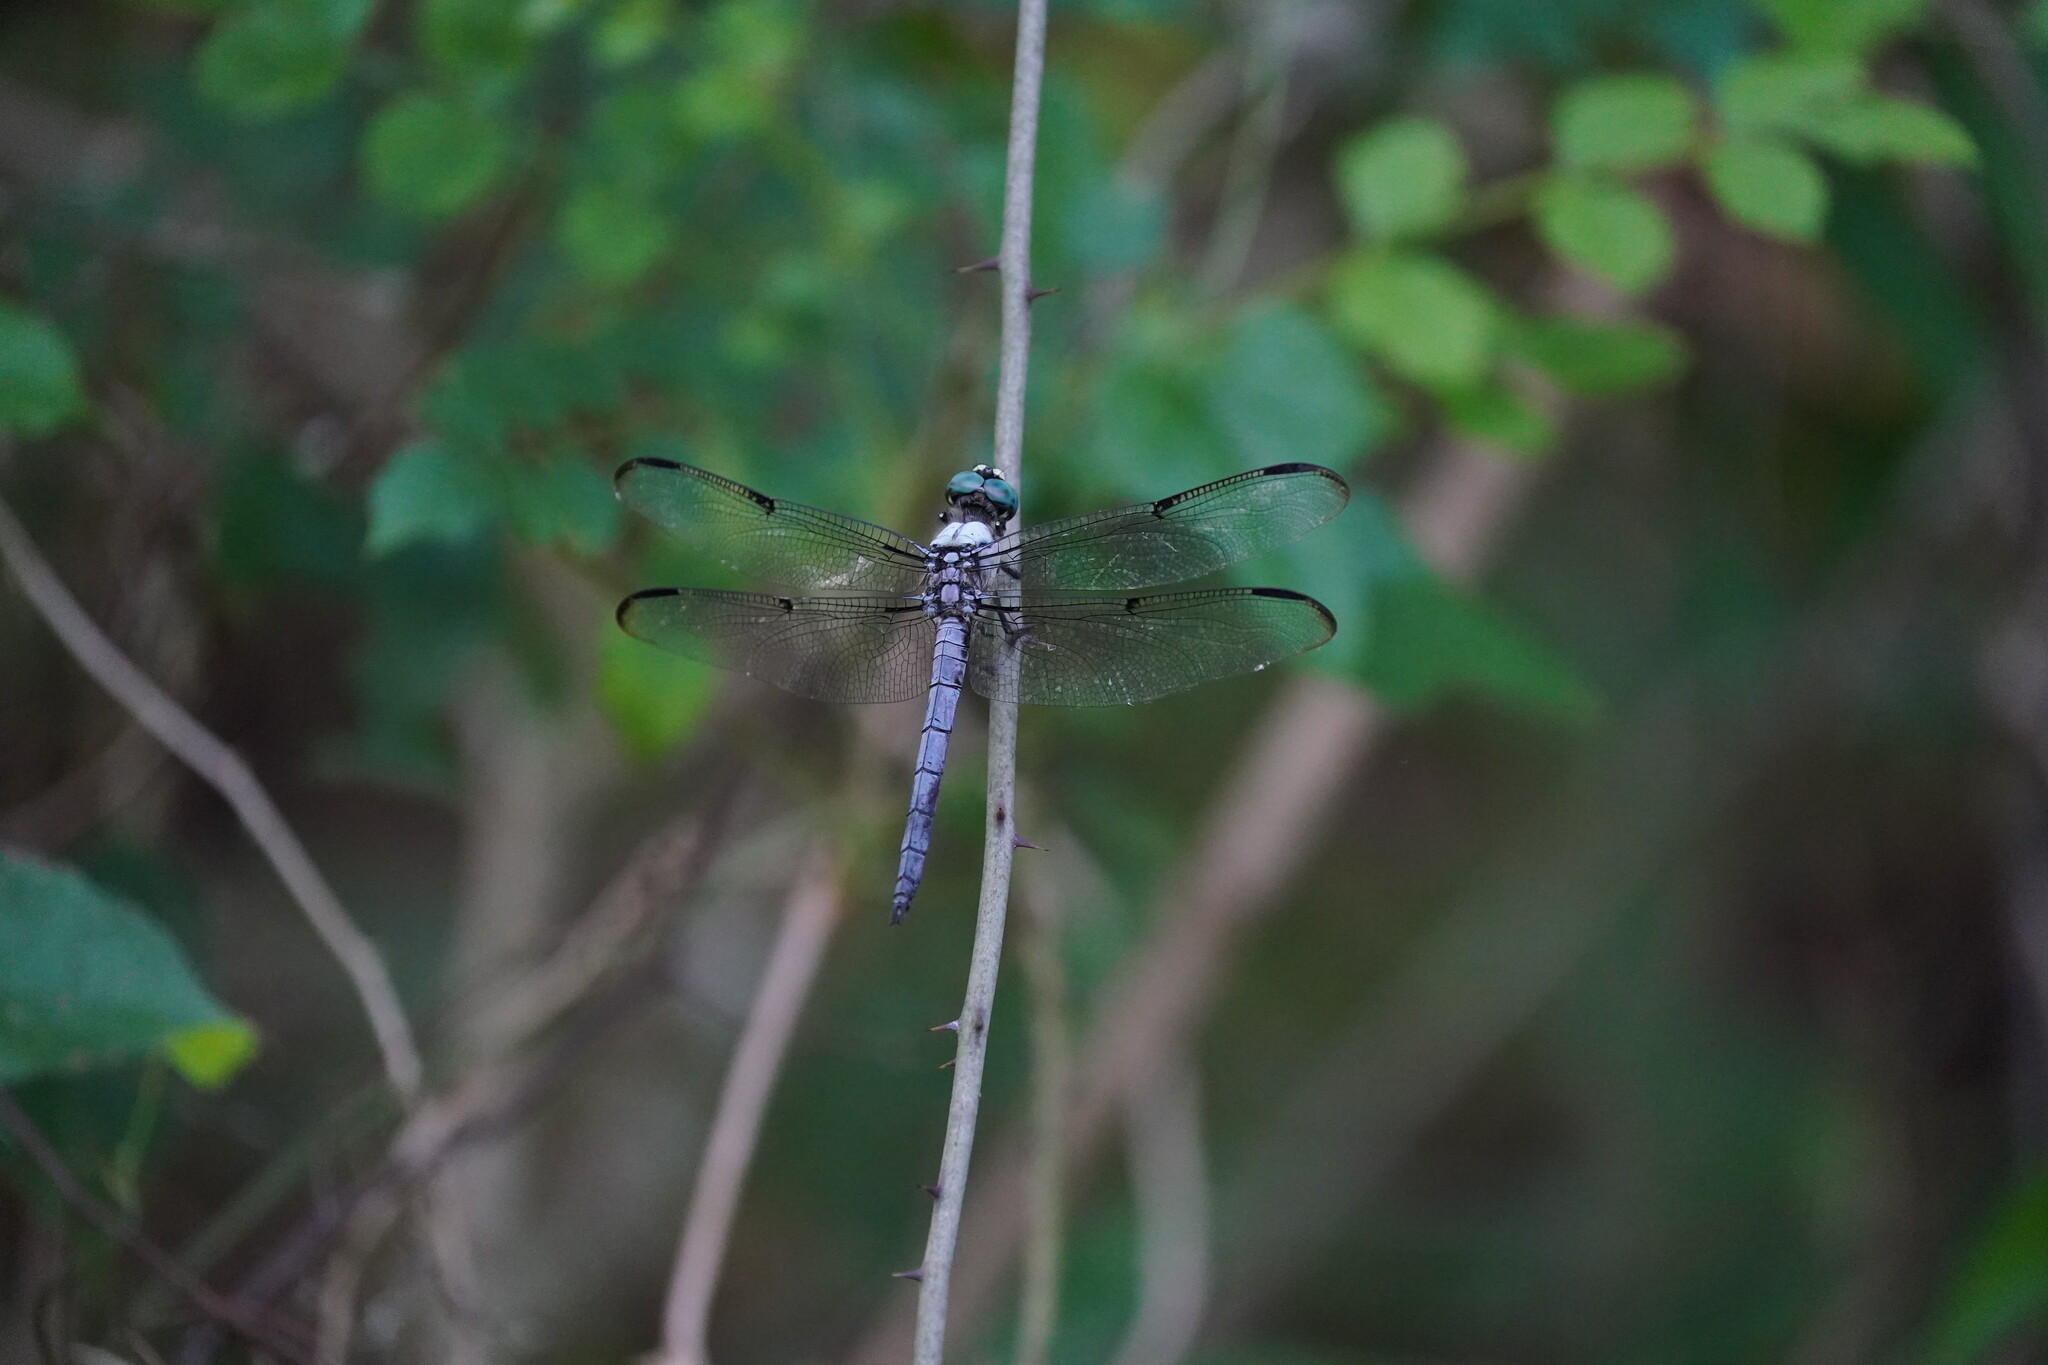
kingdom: Animalia
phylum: Arthropoda
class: Insecta
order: Odonata
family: Libellulidae
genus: Libellula
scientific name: Libellula vibrans
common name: Great blue skimmer
